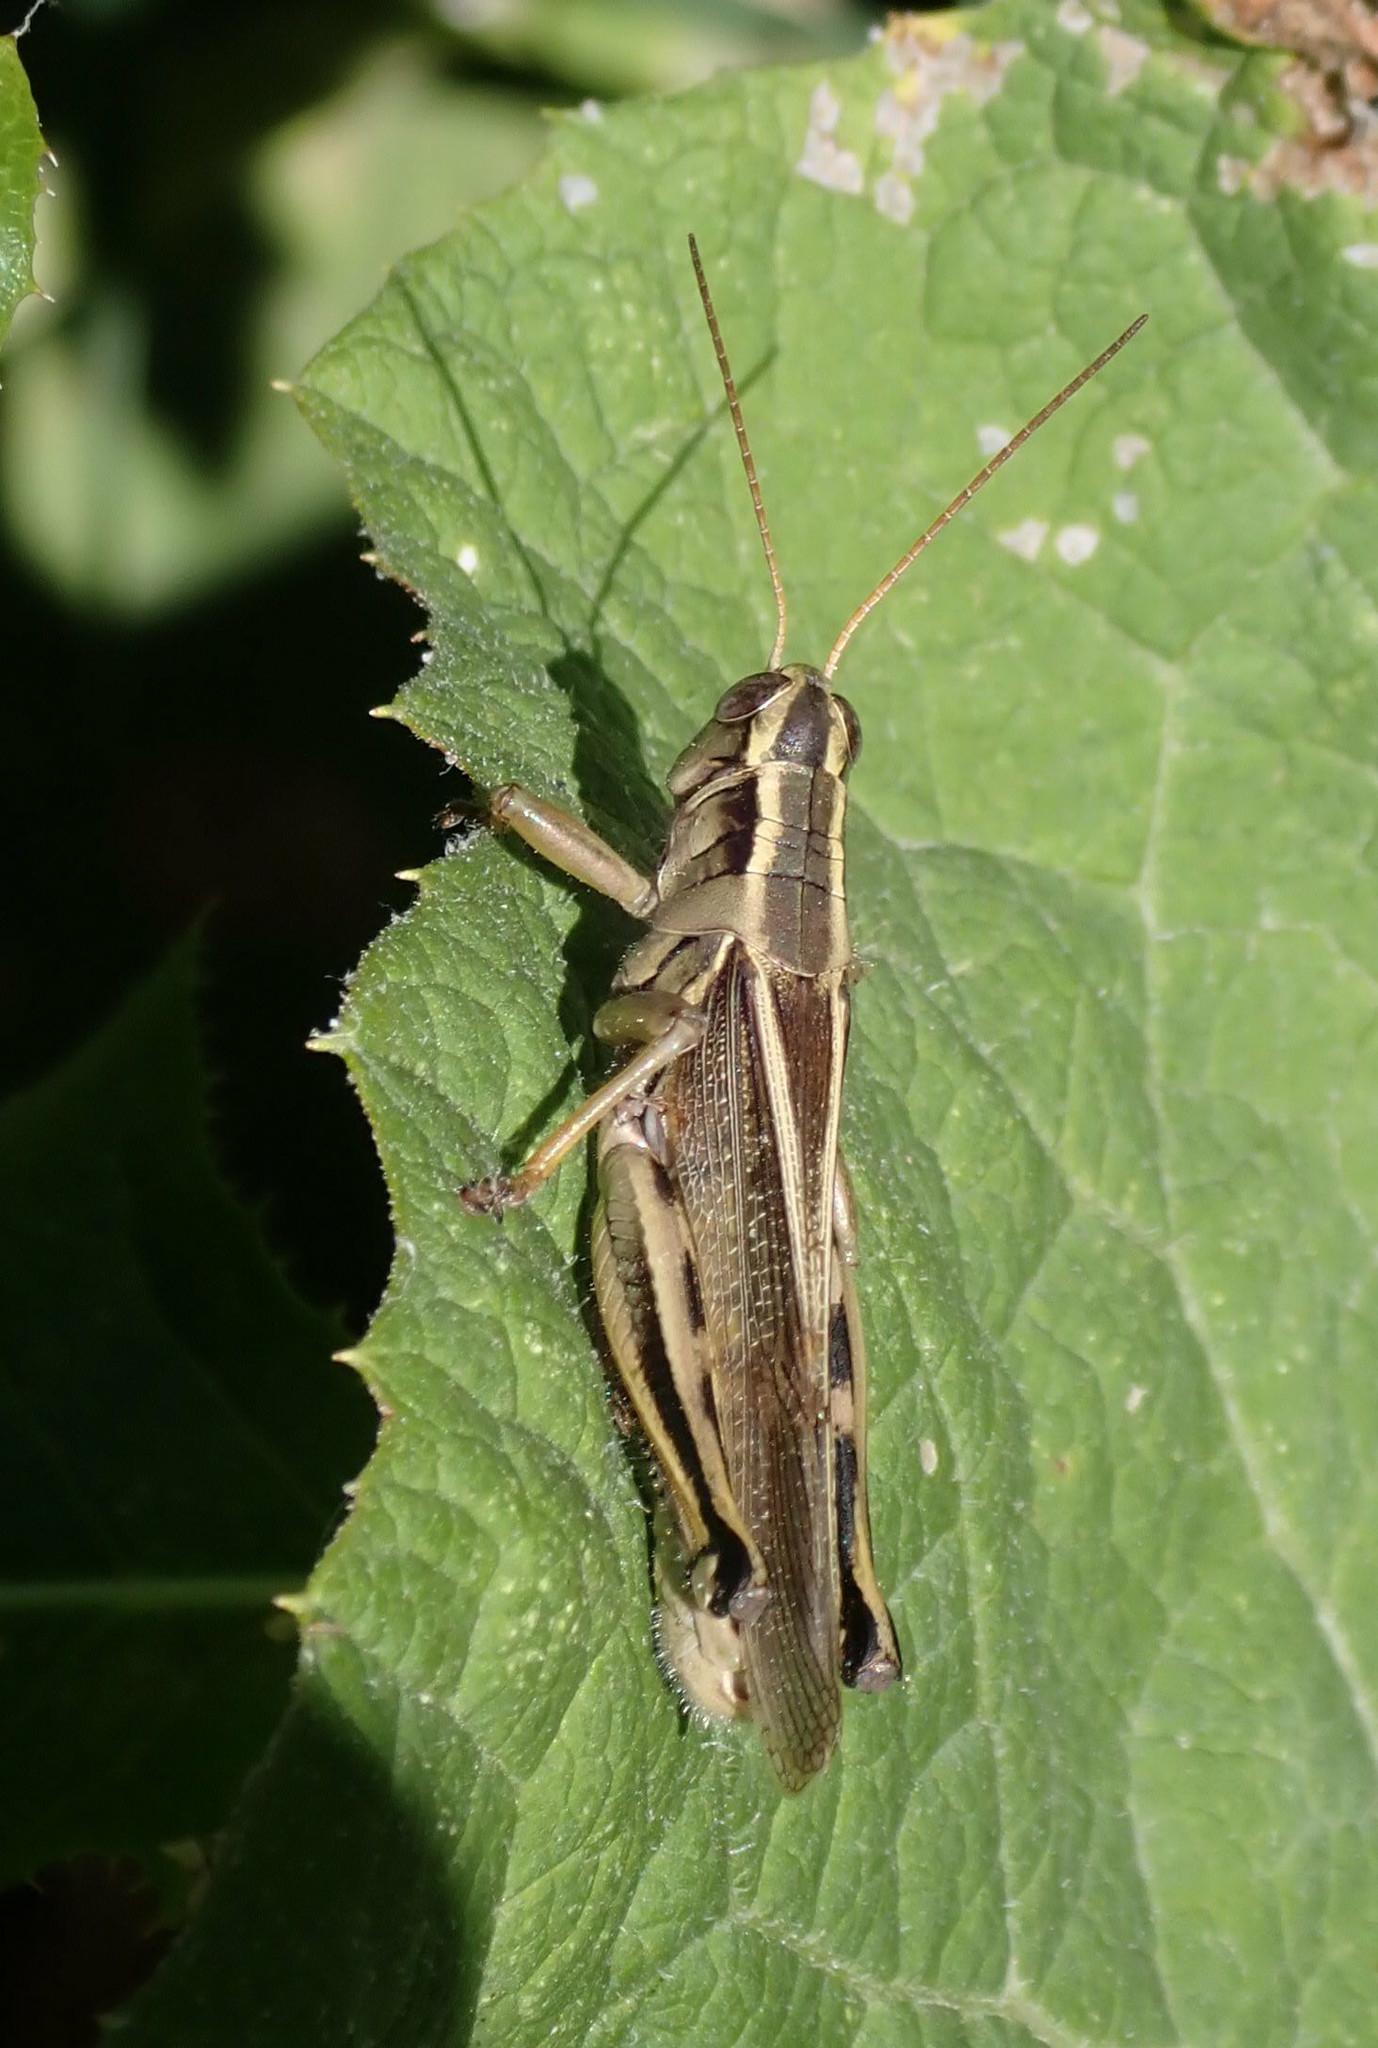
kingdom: Animalia
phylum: Arthropoda
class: Insecta
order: Orthoptera
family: Acrididae
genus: Melanoplus
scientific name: Melanoplus bivittatus
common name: Two-striped grasshopper
